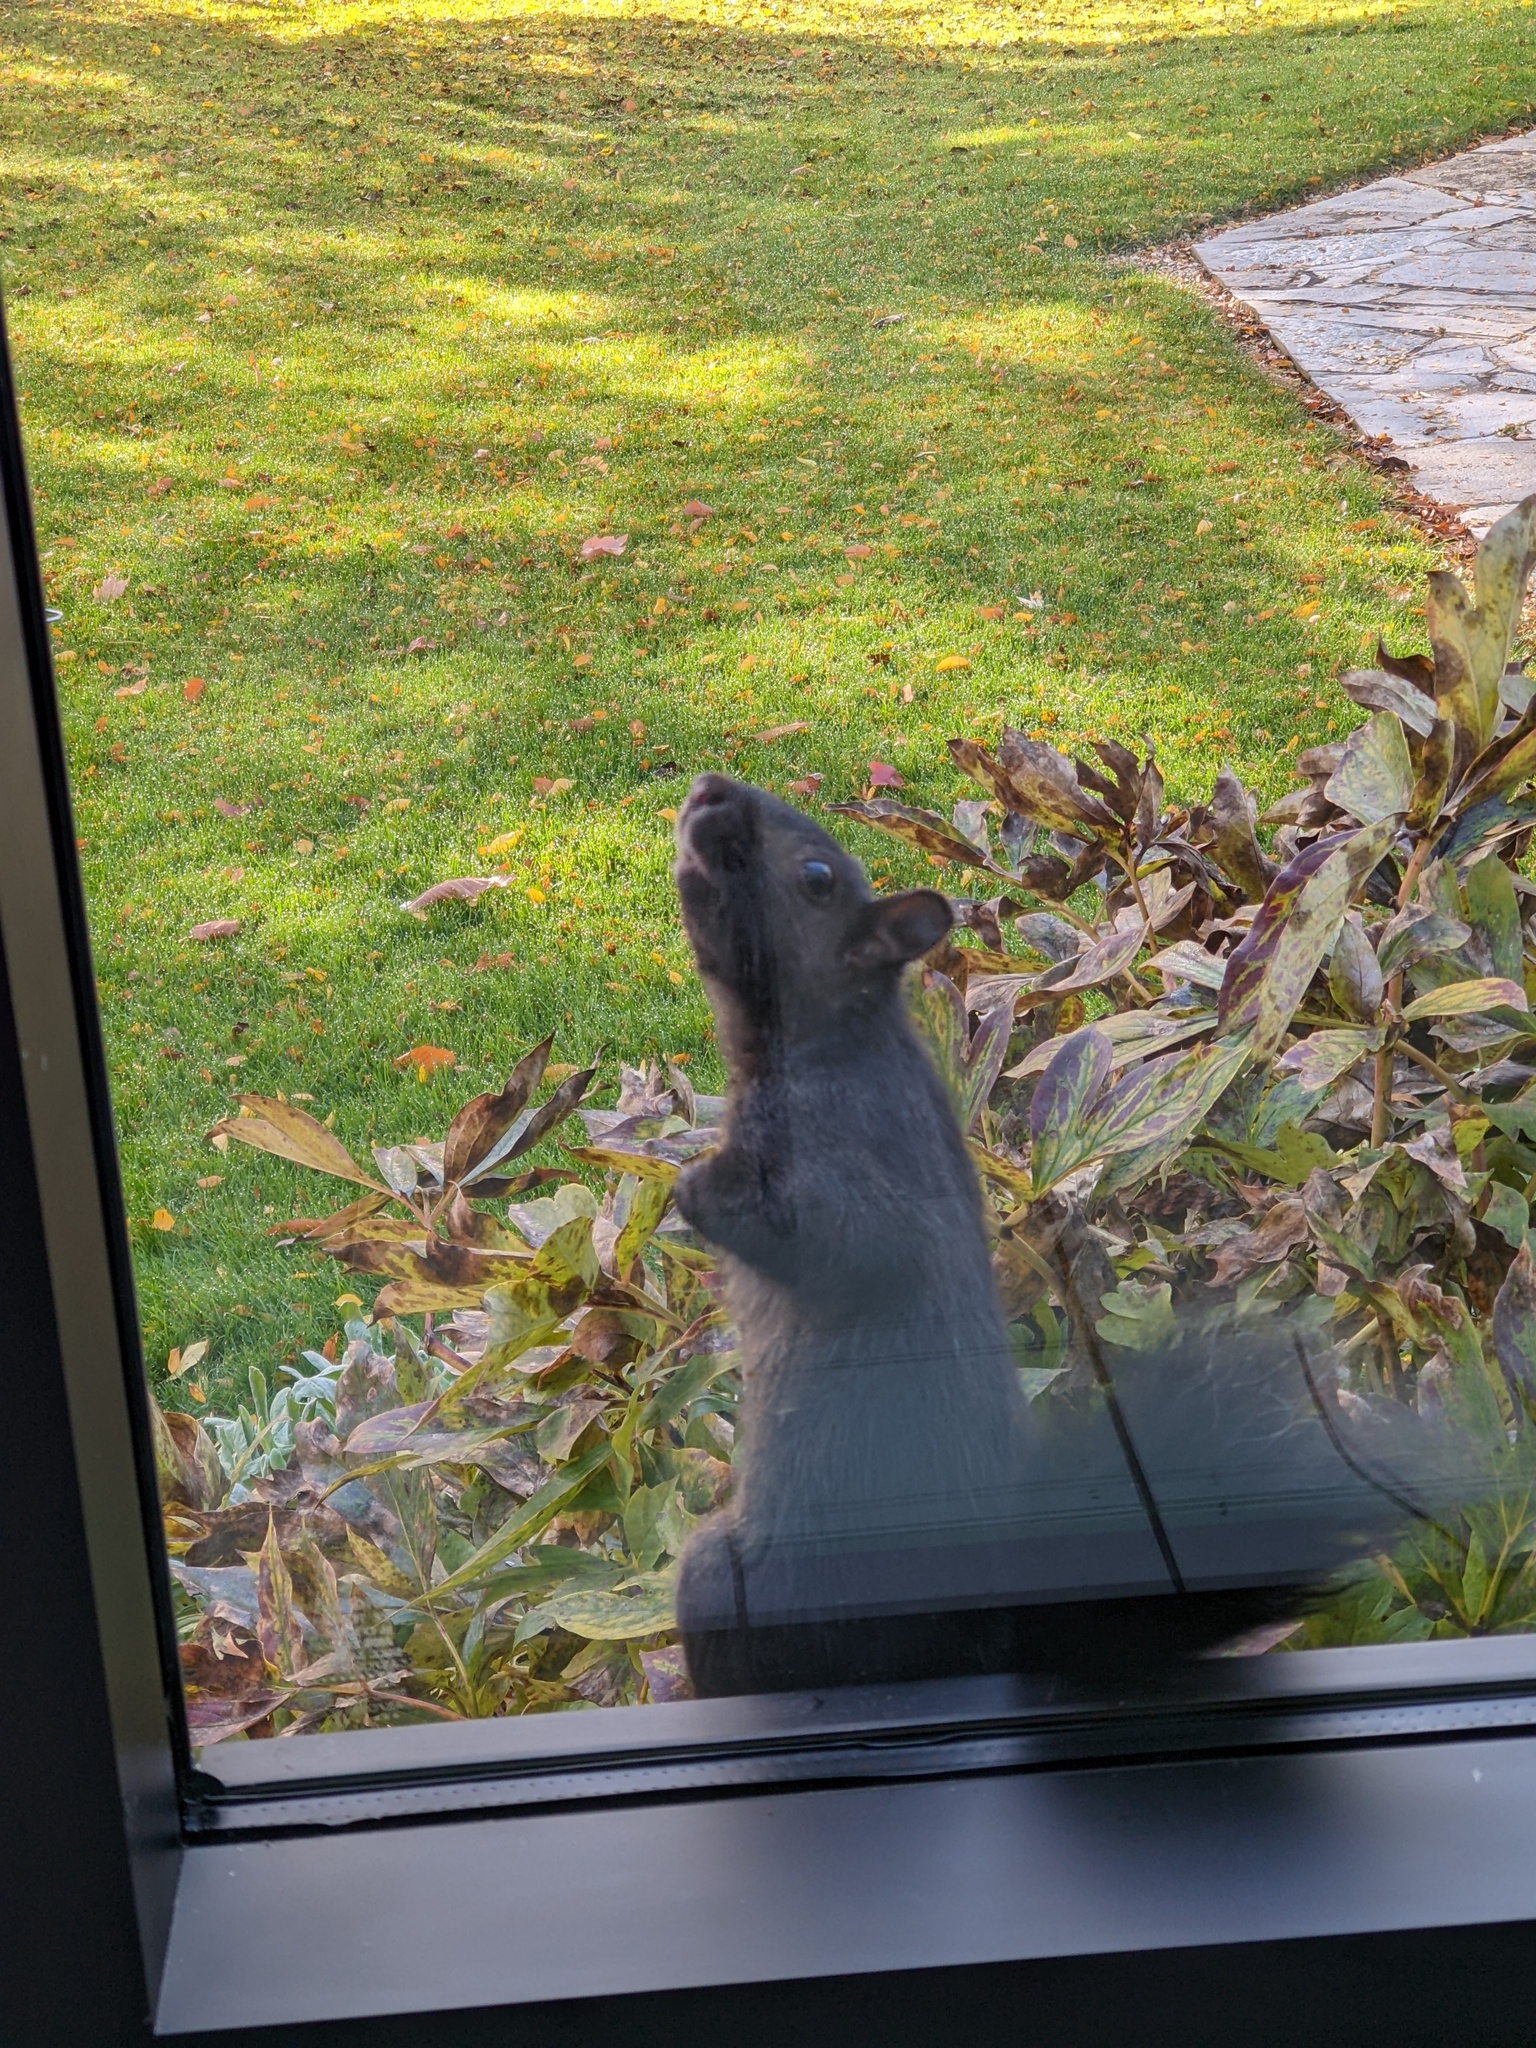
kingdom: Animalia
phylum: Chordata
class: Mammalia
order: Rodentia
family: Sciuridae
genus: Sciurus
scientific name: Sciurus carolinensis
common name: Eastern gray squirrel
